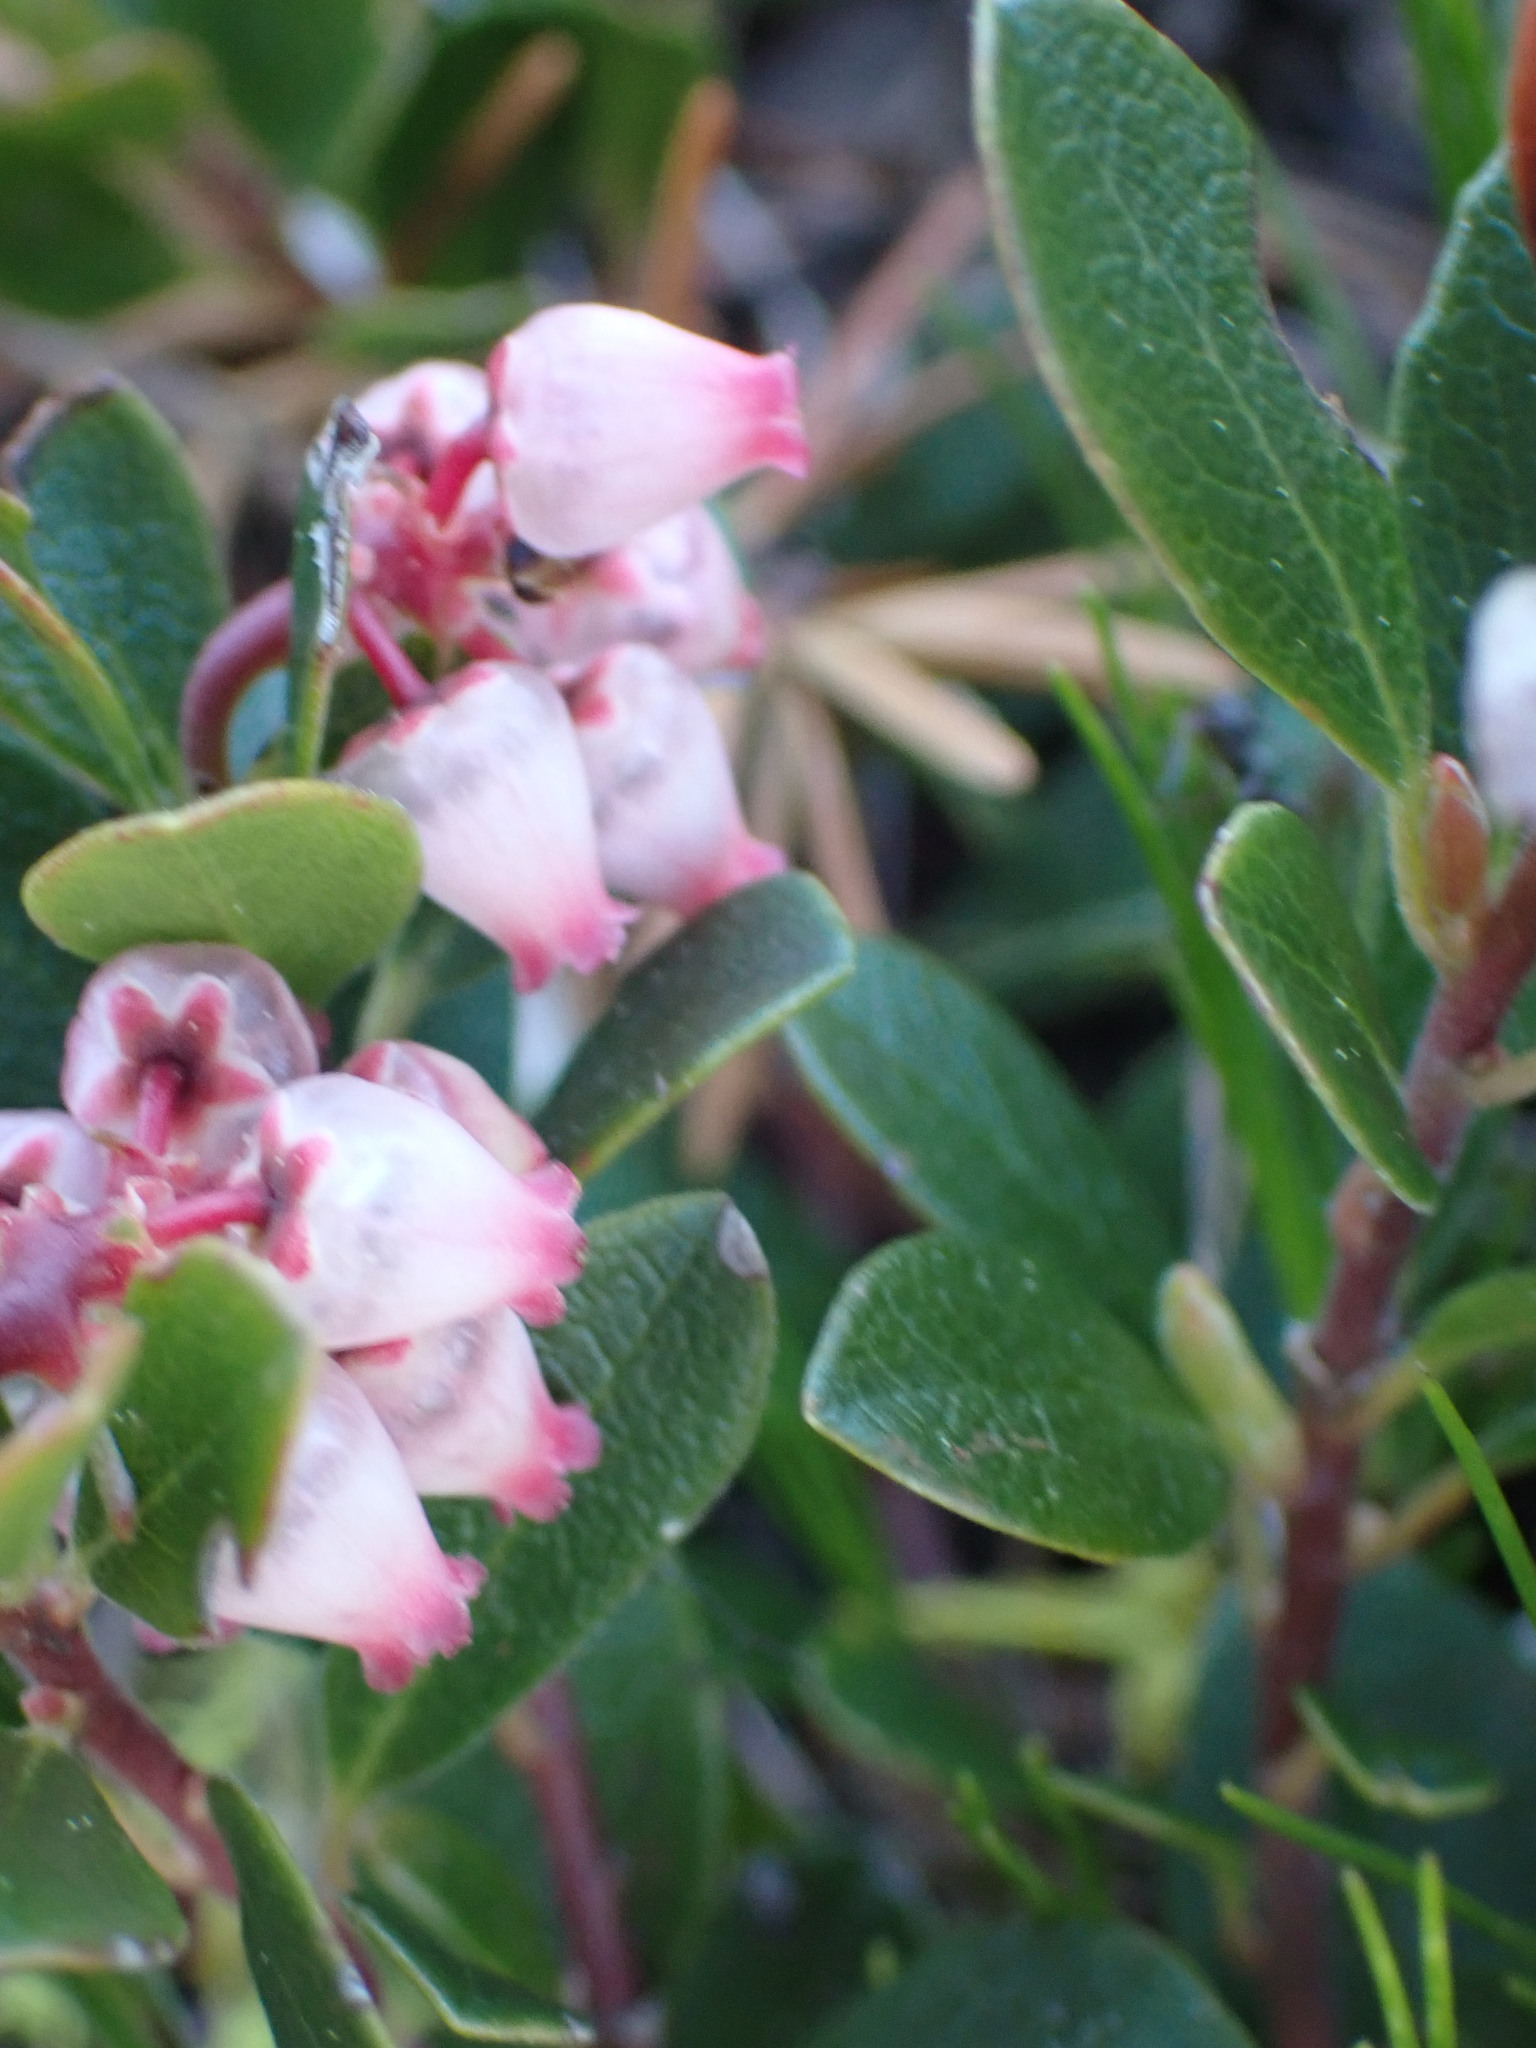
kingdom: Plantae
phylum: Tracheophyta
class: Magnoliopsida
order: Ericales
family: Ericaceae
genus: Arctostaphylos
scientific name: Arctostaphylos uva-ursi
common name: Bearberry
